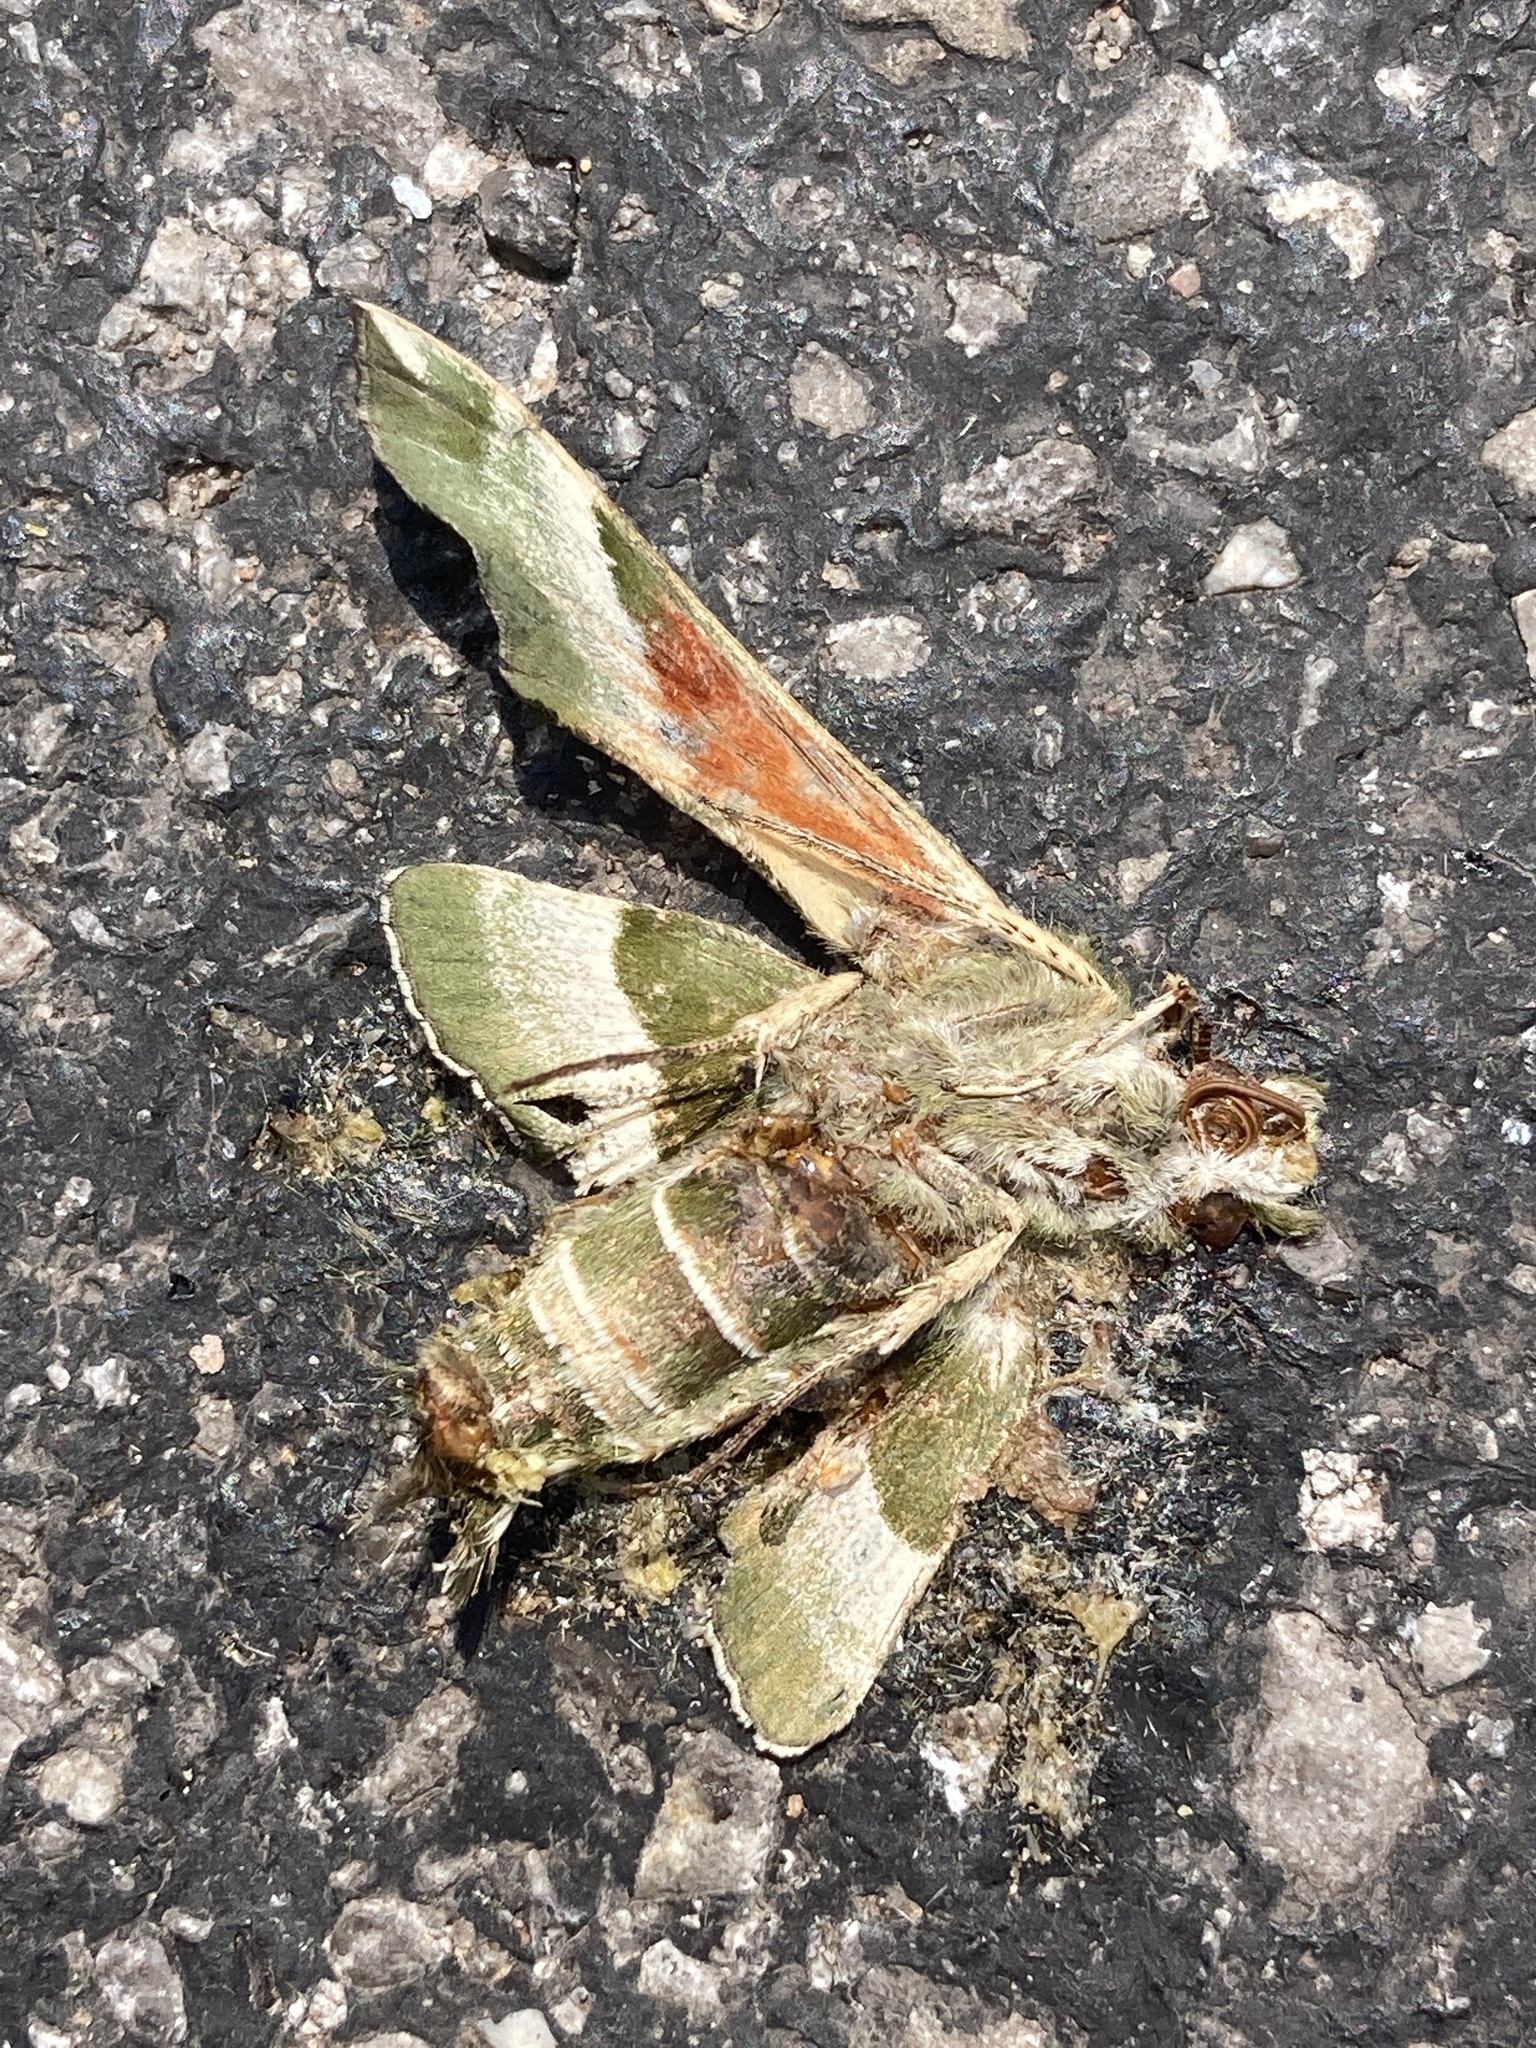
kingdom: Animalia
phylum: Arthropoda
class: Insecta
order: Lepidoptera
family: Sphingidae
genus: Proserpinus
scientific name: Proserpinus juanita
